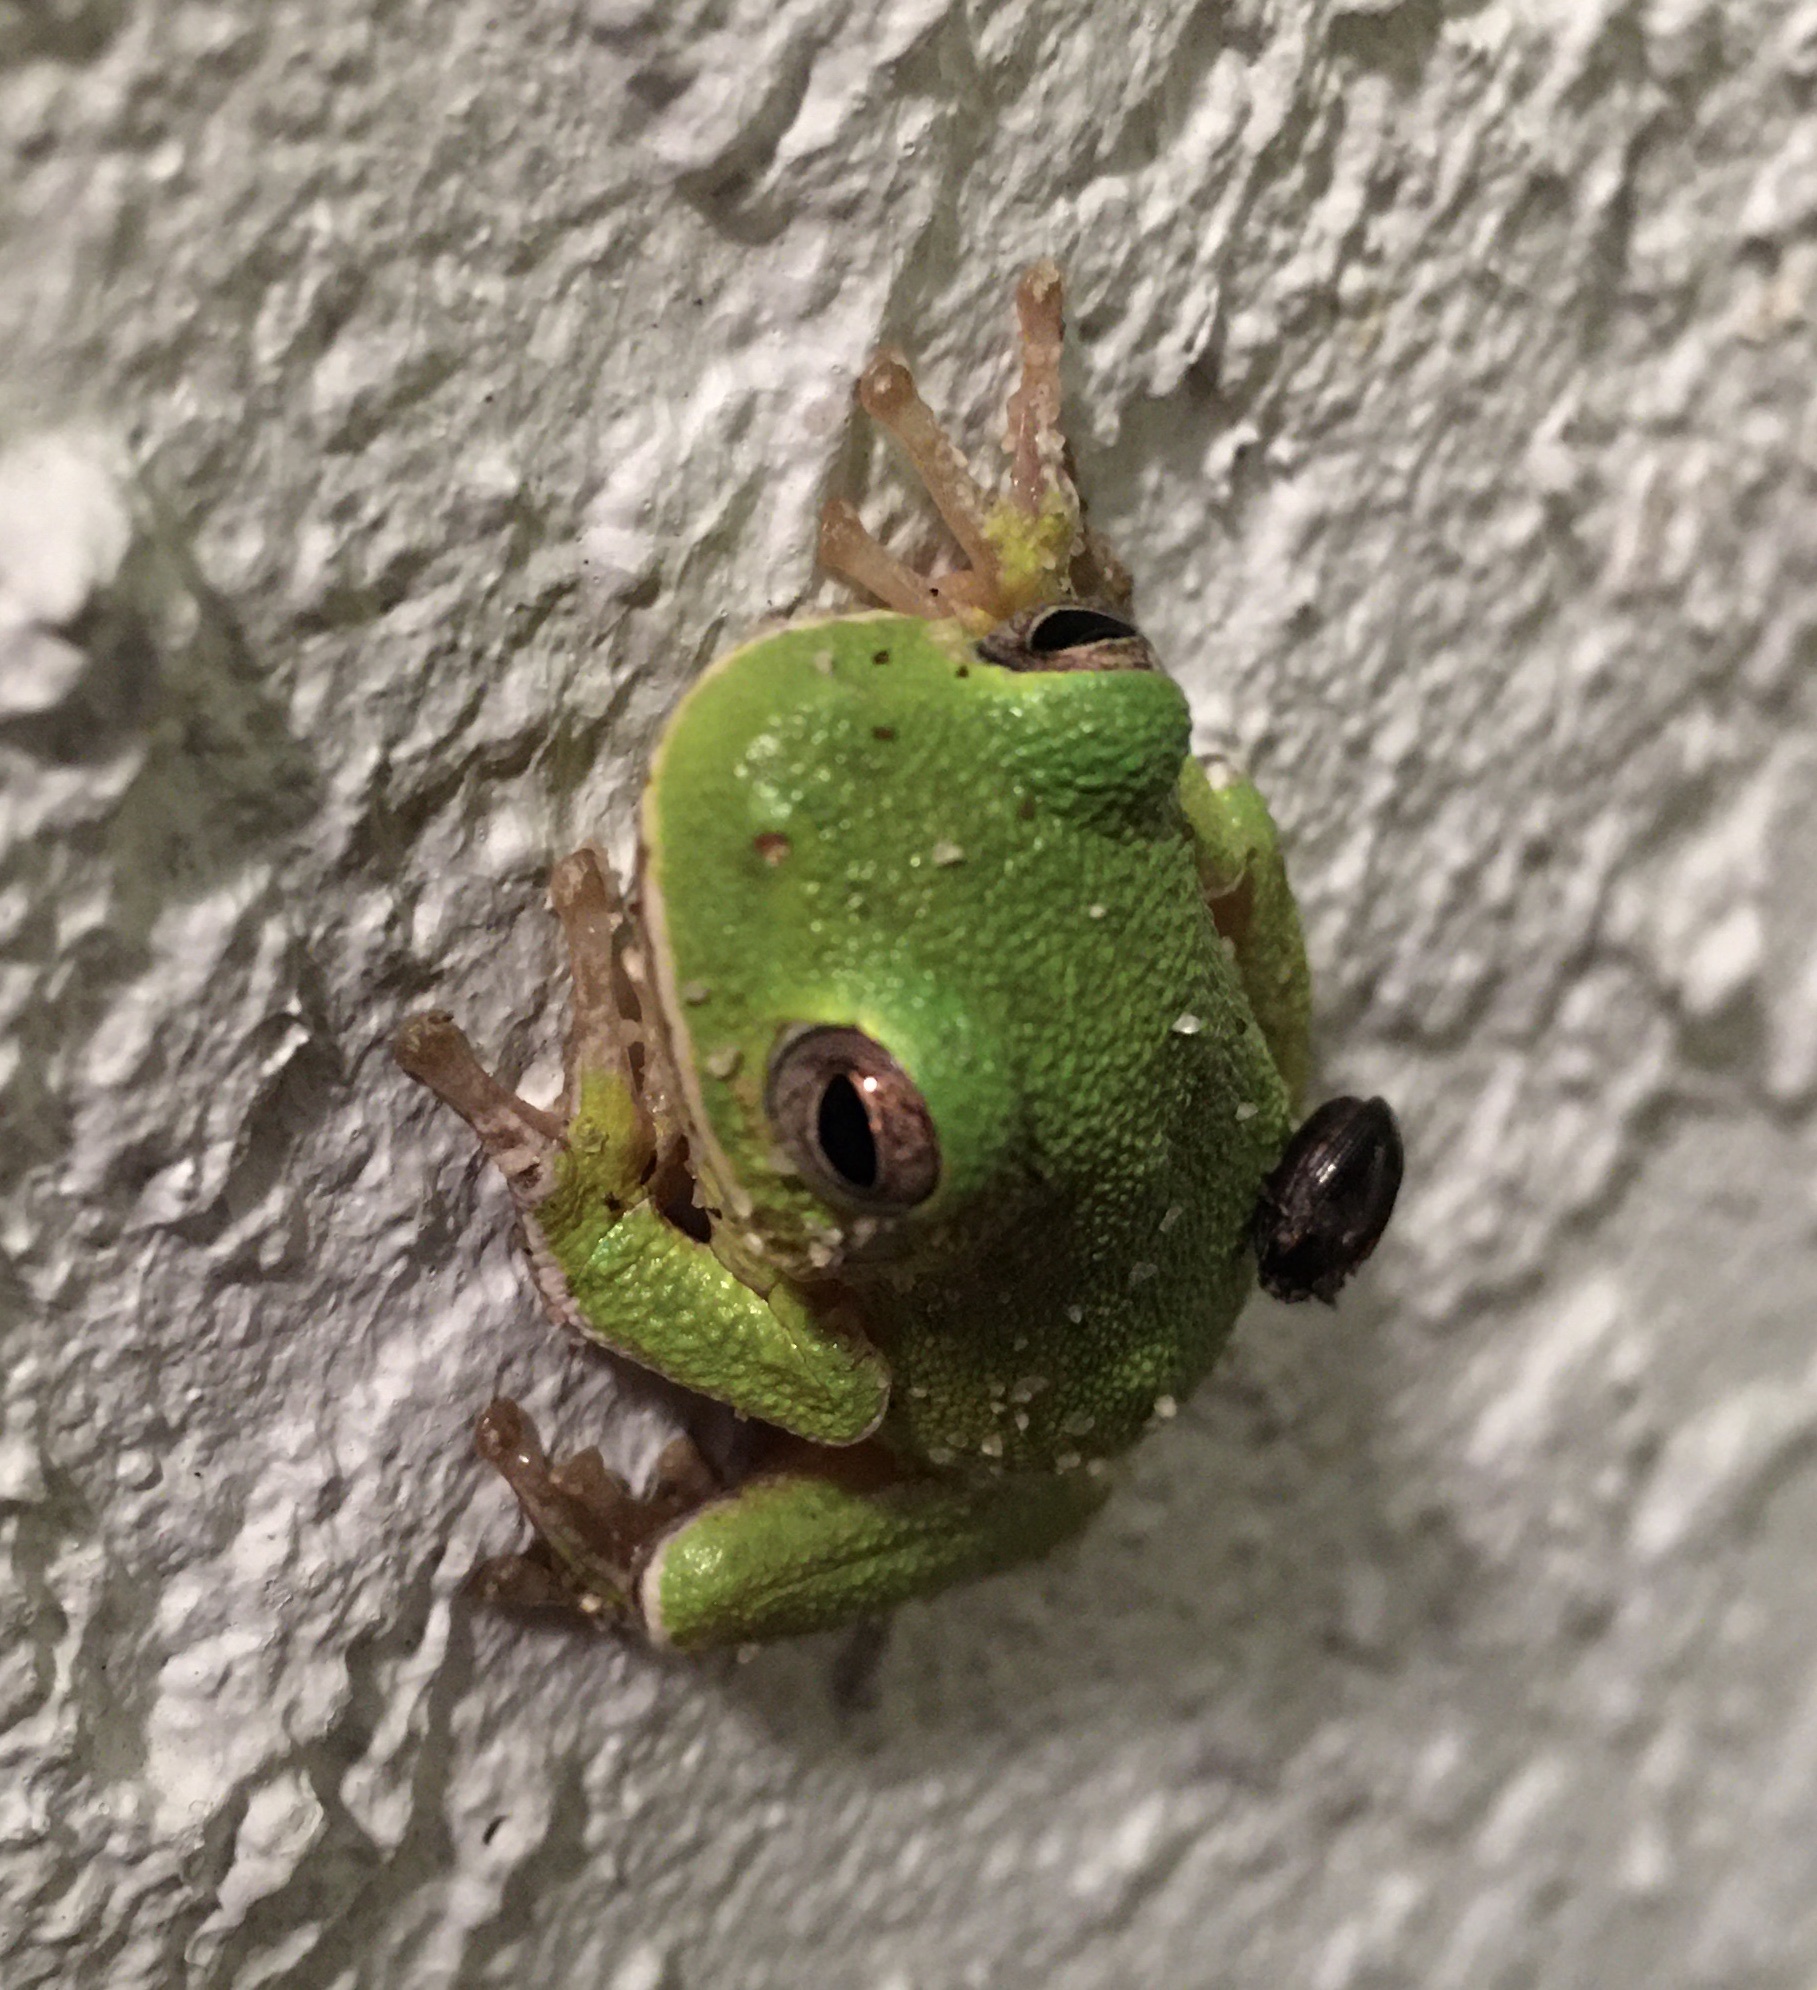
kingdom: Animalia
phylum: Chordata
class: Amphibia
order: Anura
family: Hylidae
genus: Dryophytes
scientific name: Dryophytes gratiosus
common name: Barking treefrog
